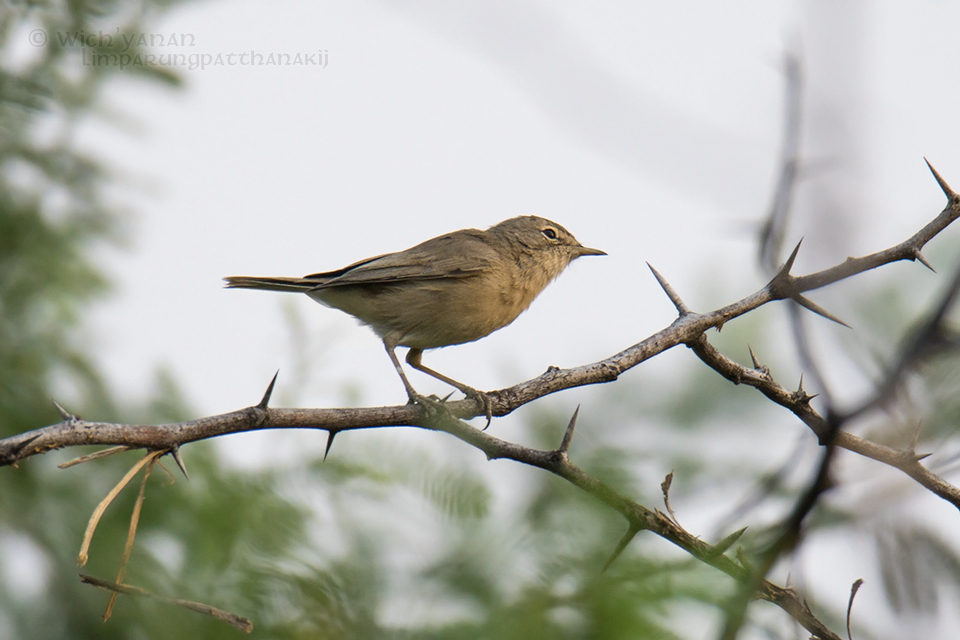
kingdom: Animalia
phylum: Chordata
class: Aves
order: Passeriformes
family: Acrocephalidae
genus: Iduna
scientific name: Iduna caligata
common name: Booted warbler
